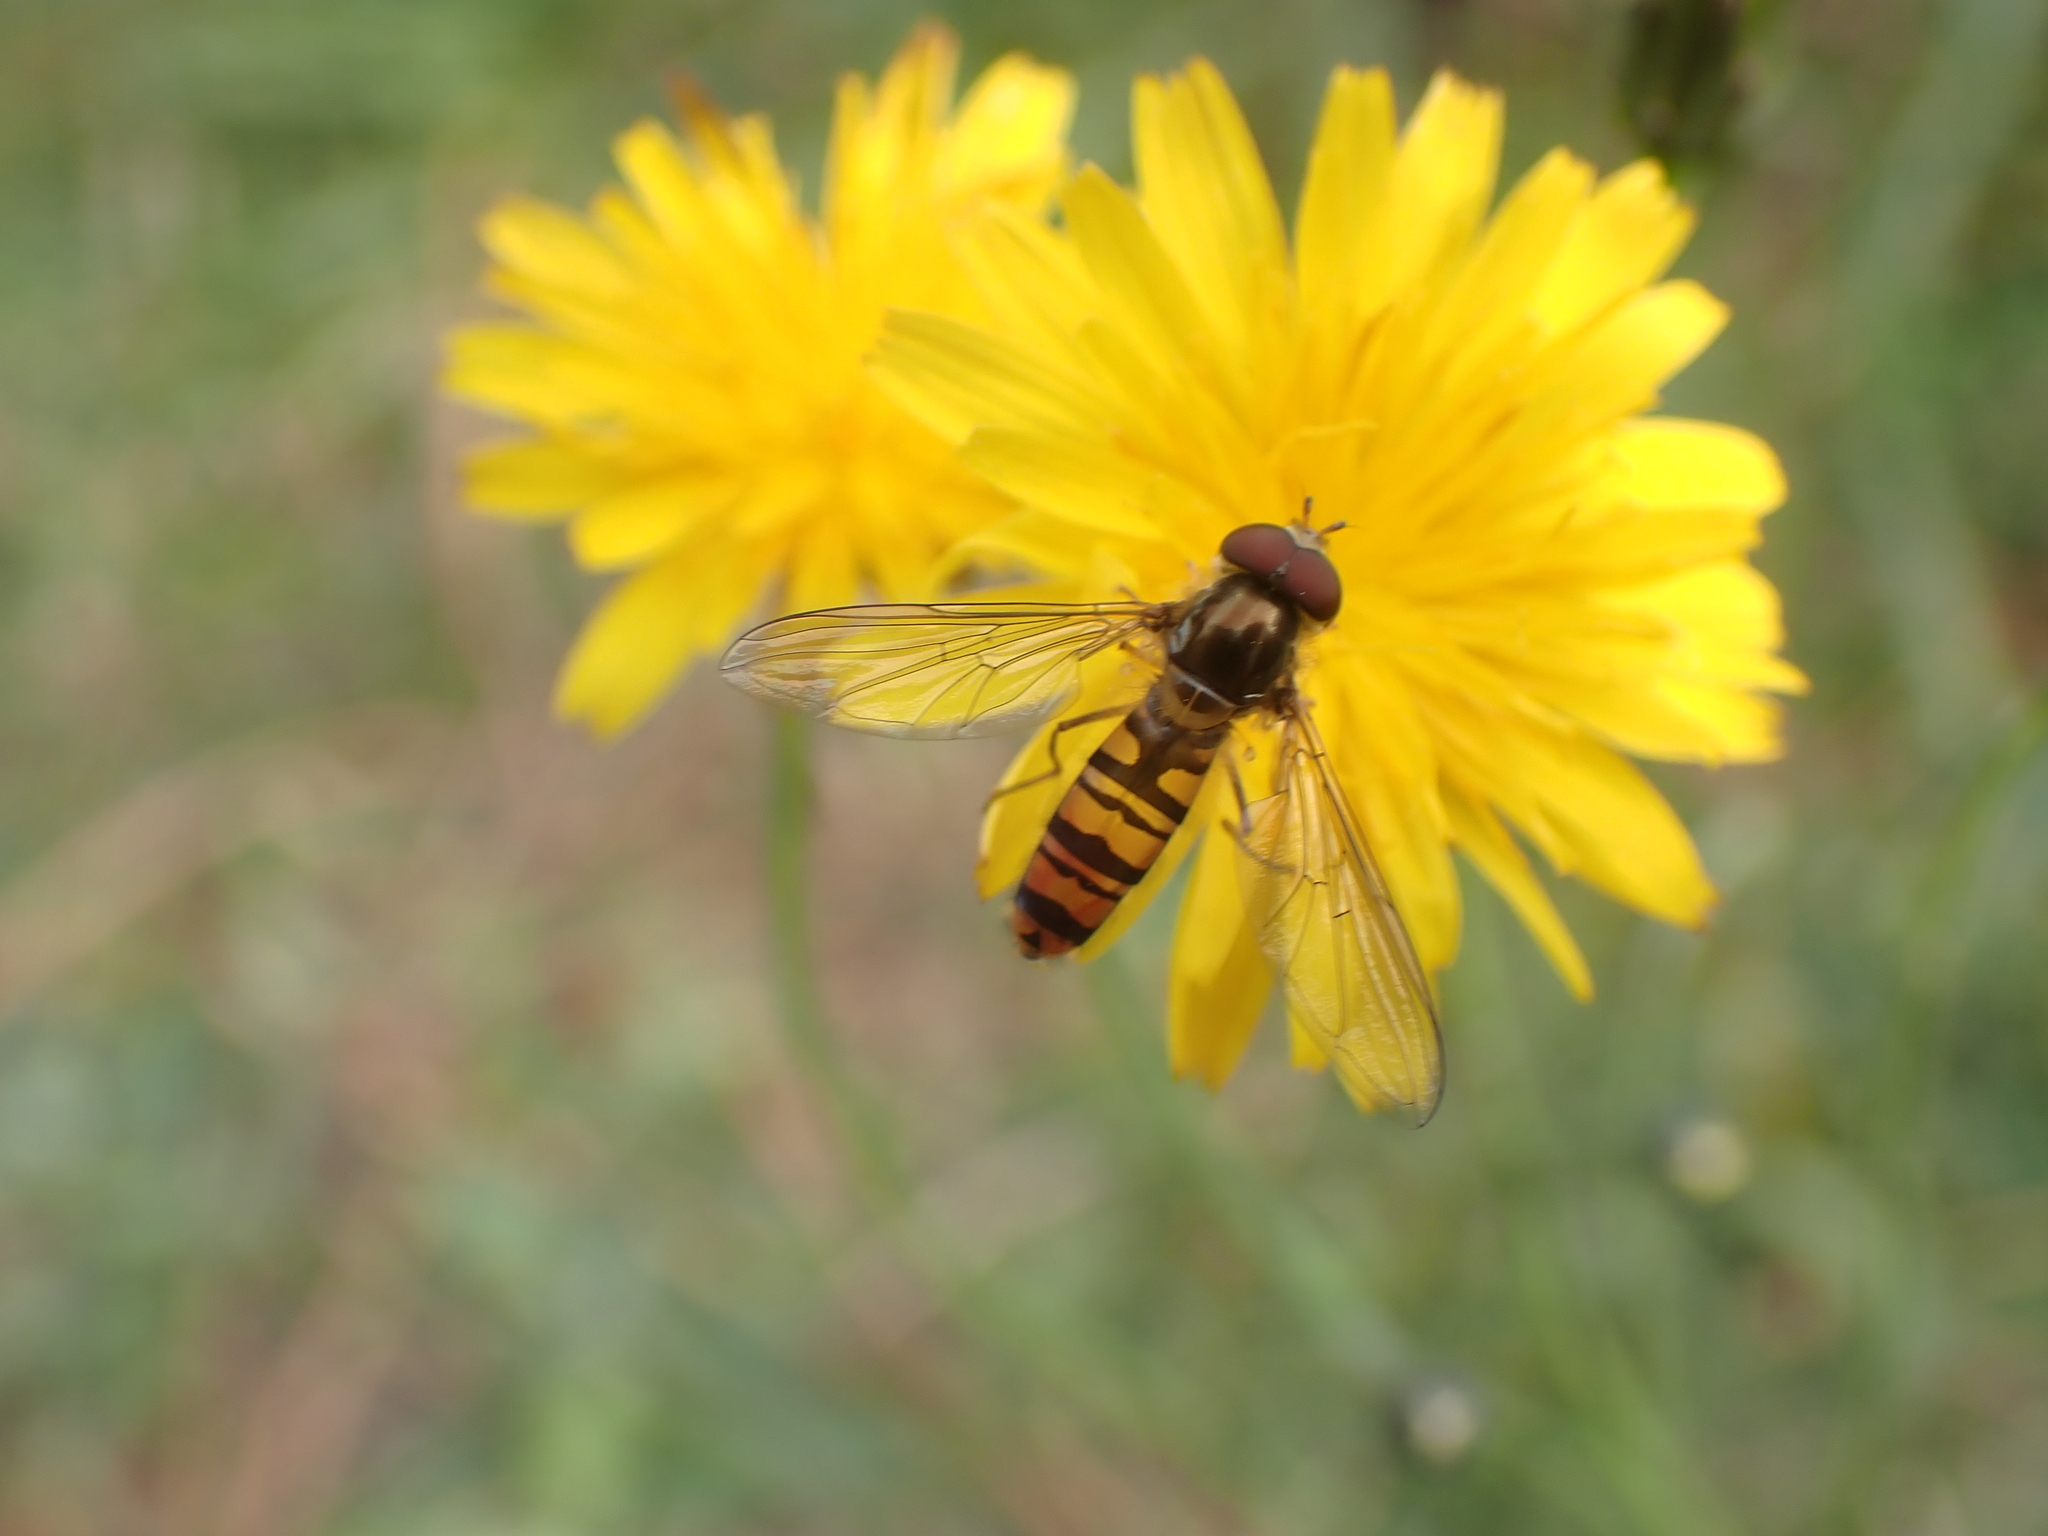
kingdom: Animalia
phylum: Arthropoda
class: Insecta
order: Diptera
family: Syrphidae
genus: Episyrphus
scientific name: Episyrphus balteatus
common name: Marmalade hoverfly
